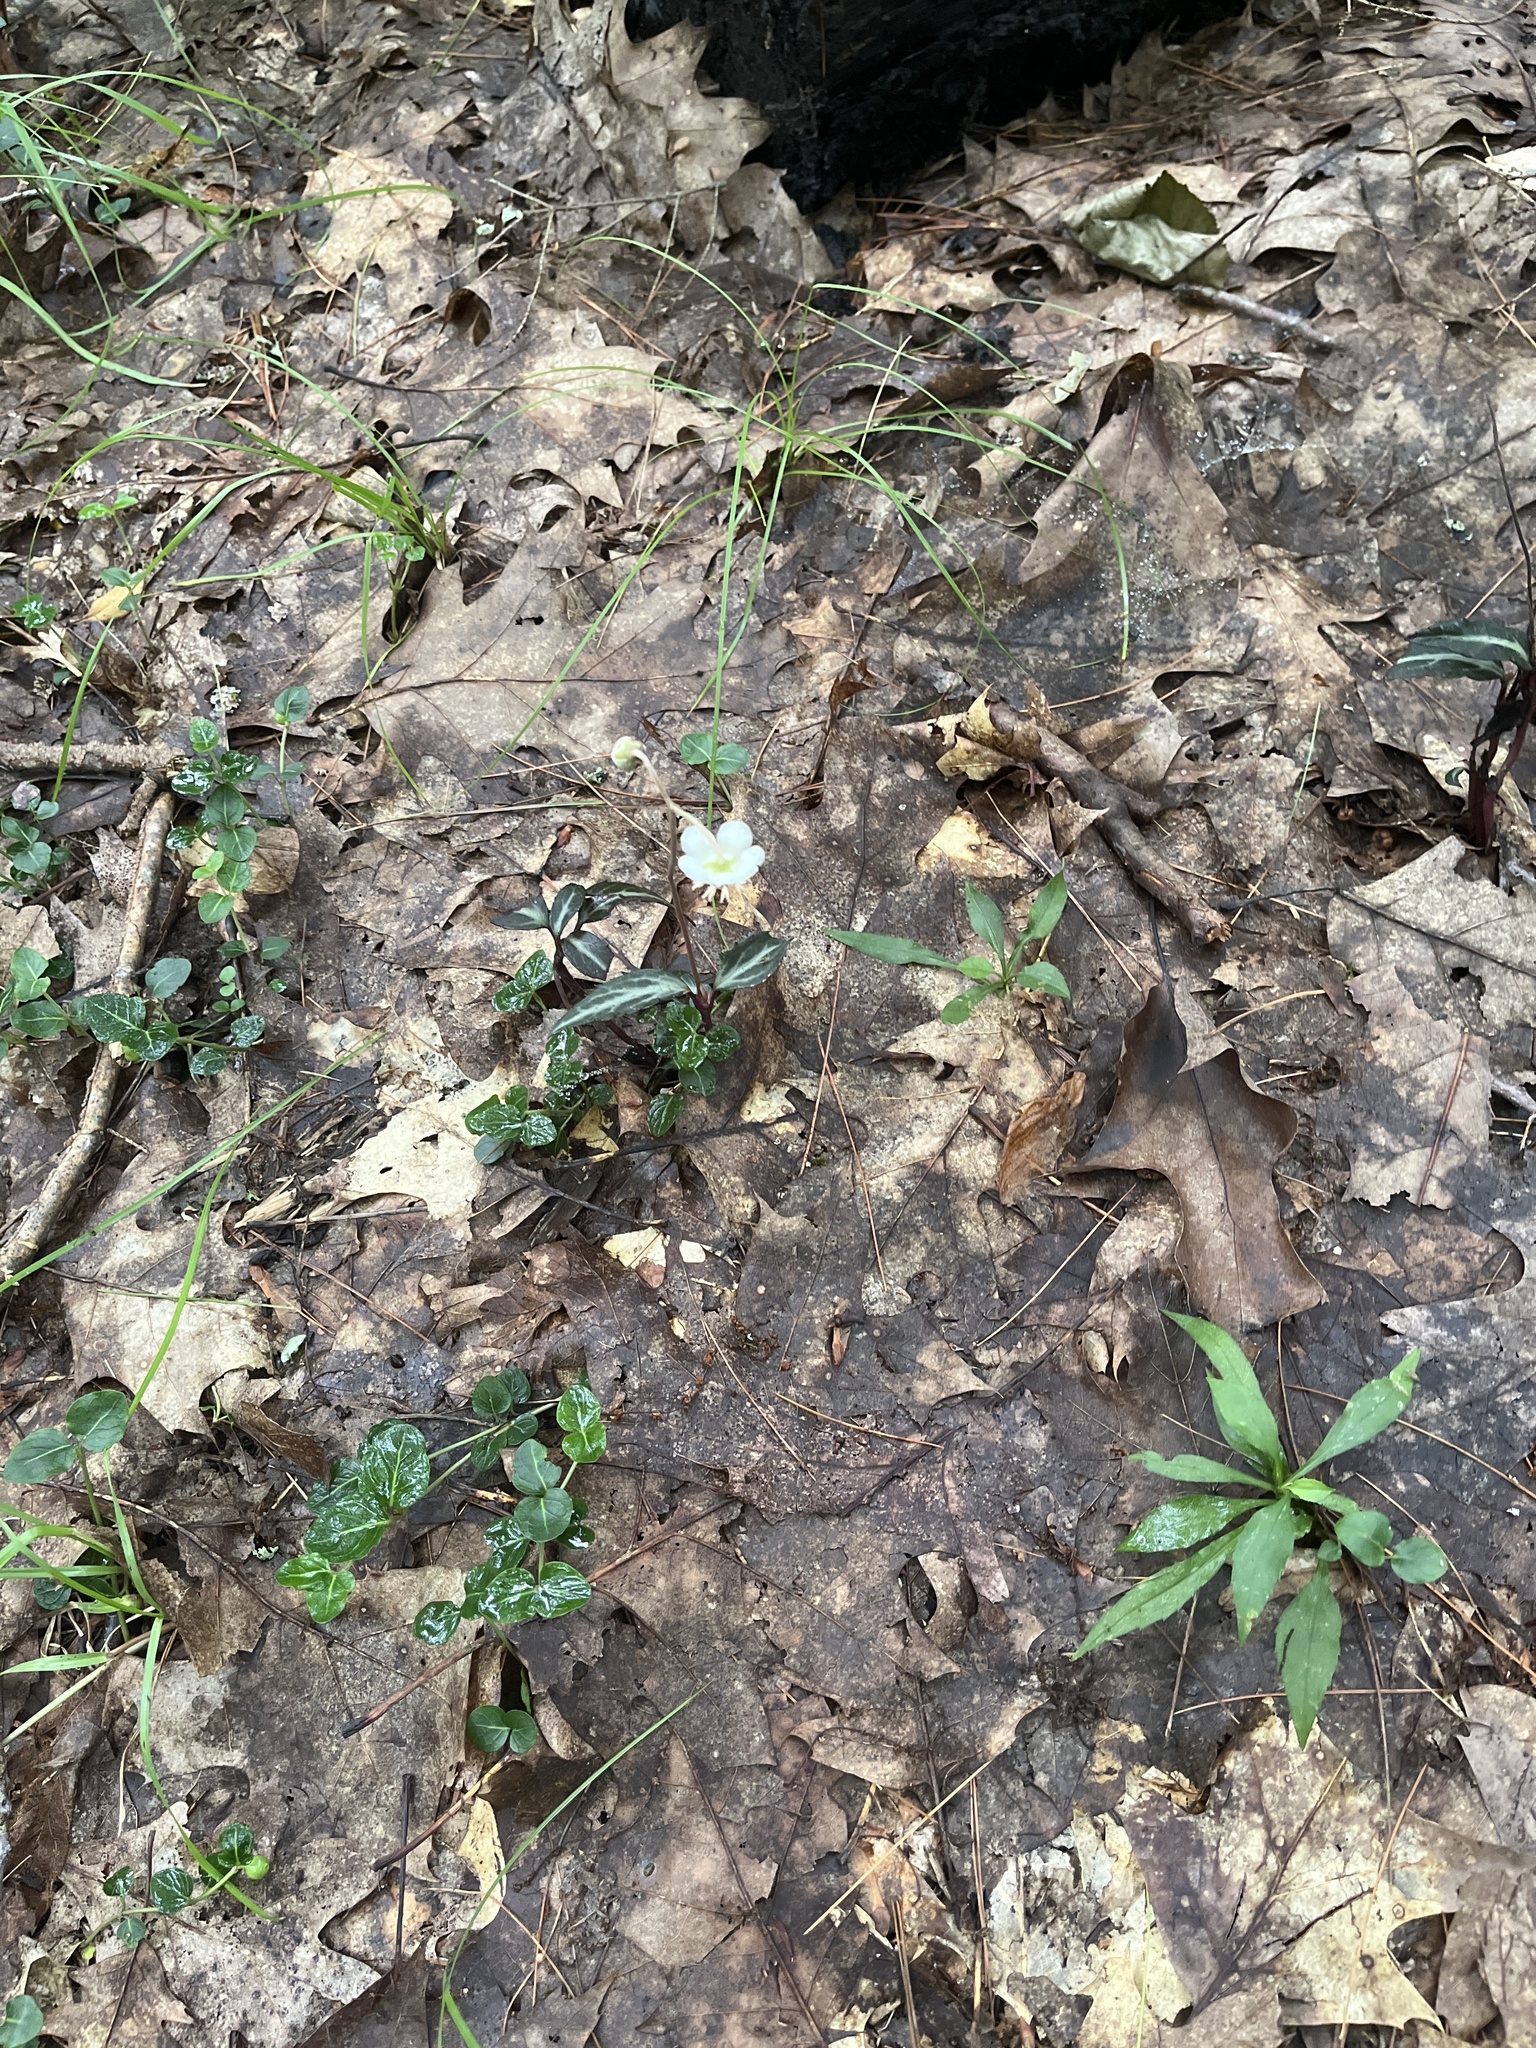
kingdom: Plantae
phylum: Tracheophyta
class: Magnoliopsida
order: Ericales
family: Ericaceae
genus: Chimaphila
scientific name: Chimaphila maculata
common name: Spotted pipsissewa
